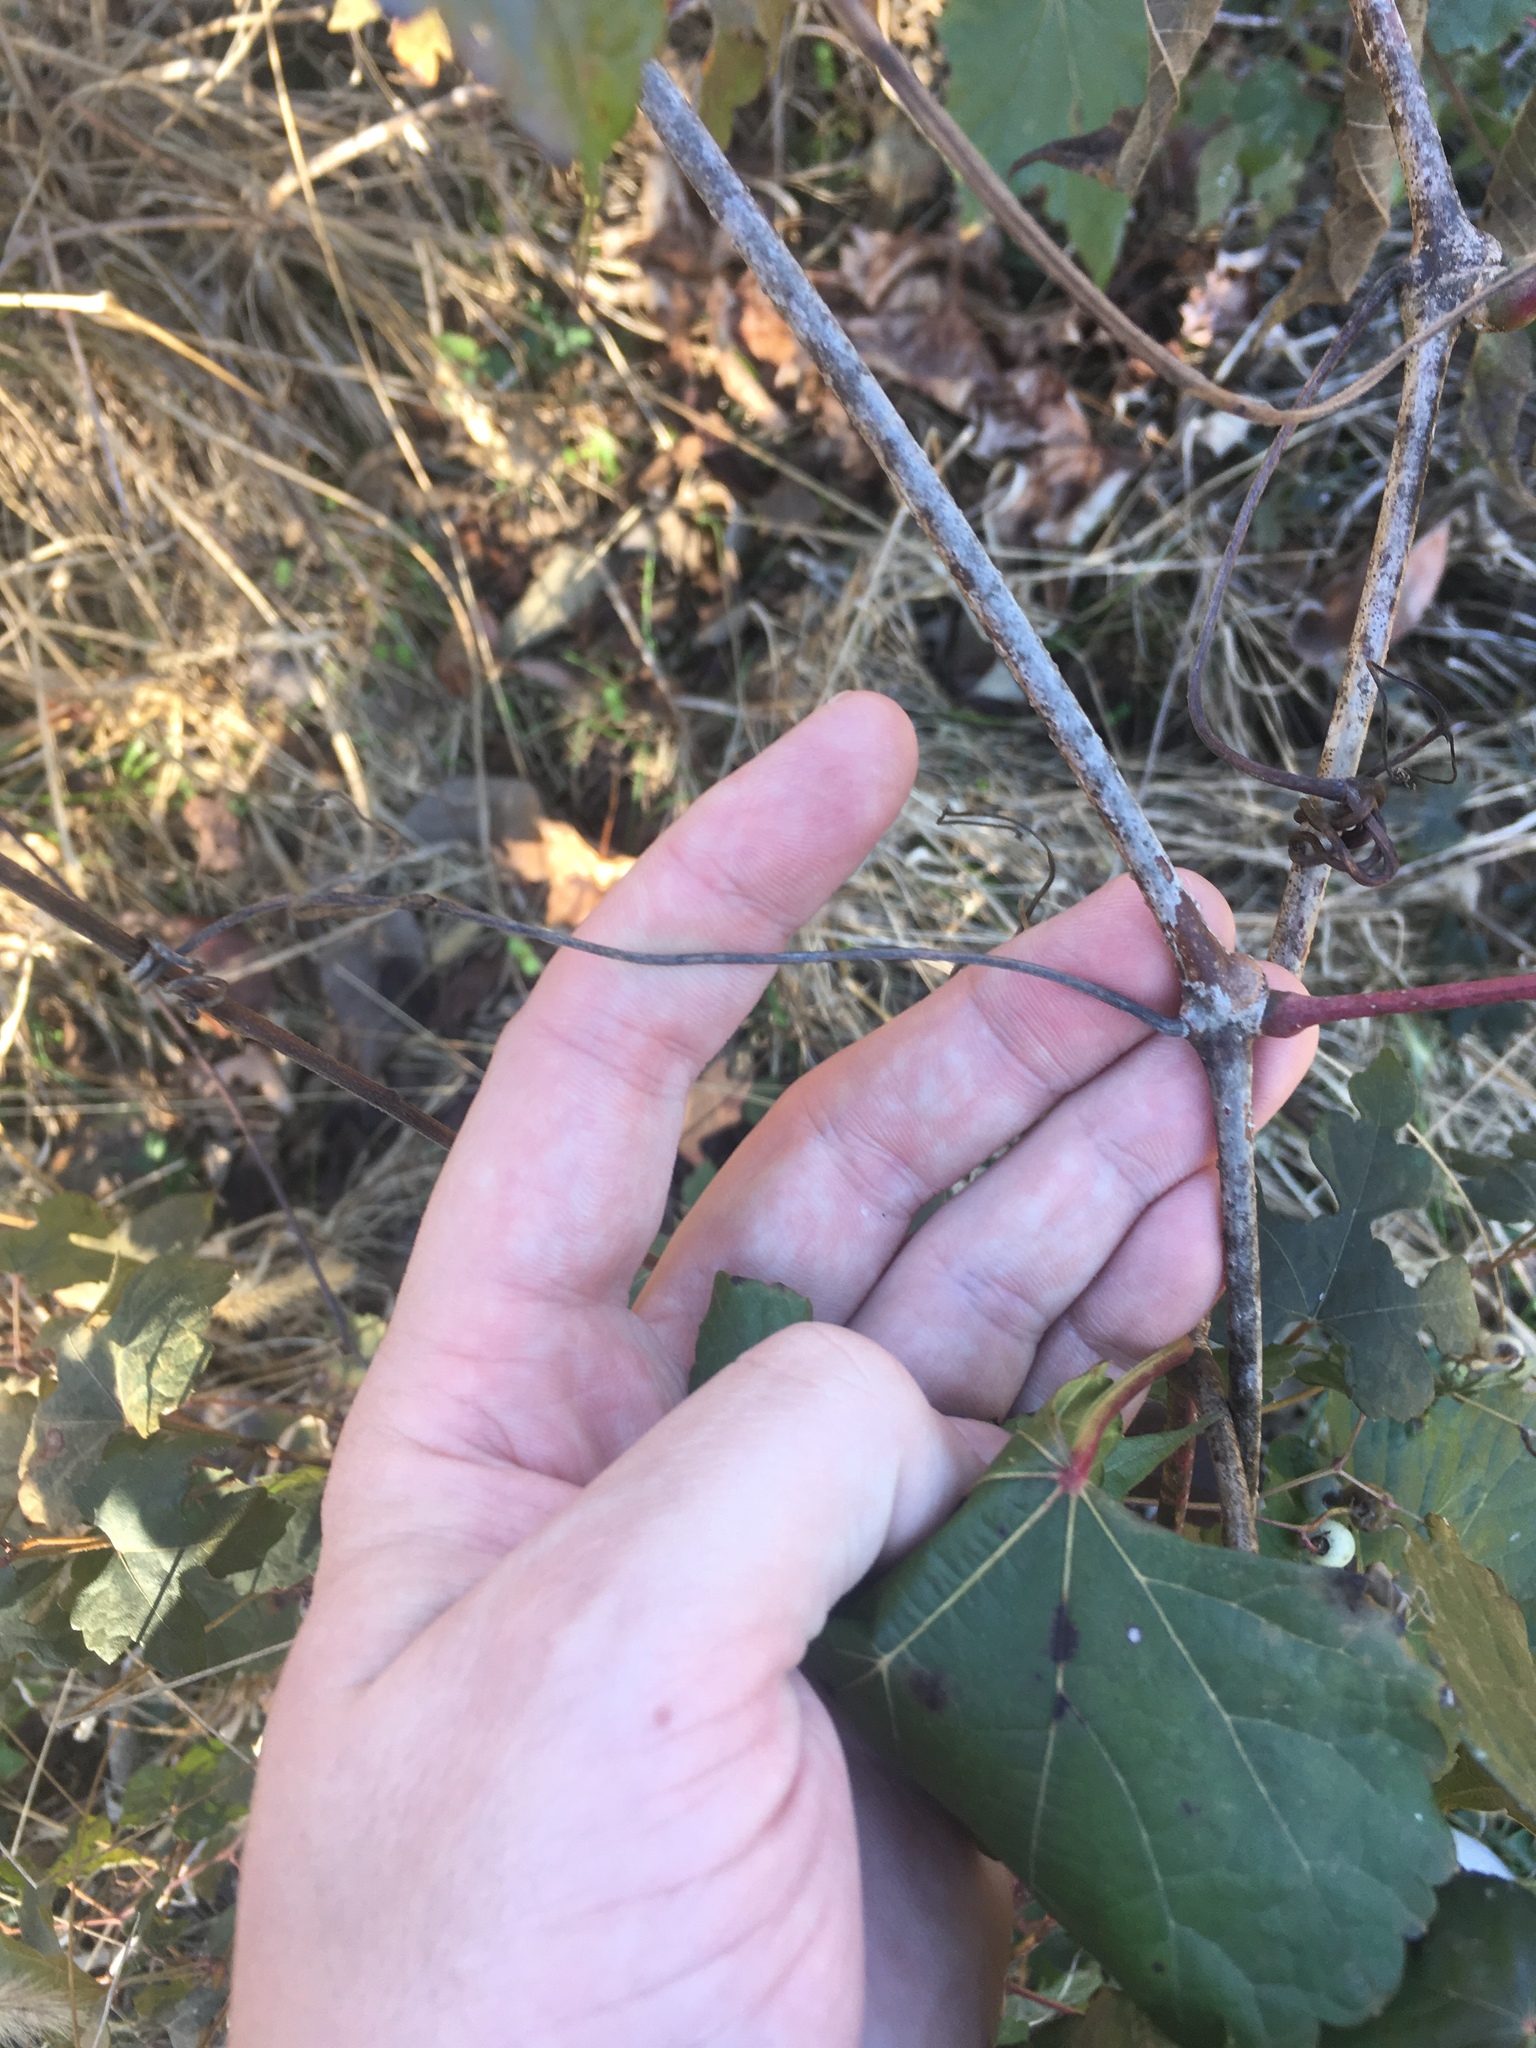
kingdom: Plantae
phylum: Tracheophyta
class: Magnoliopsida
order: Vitales
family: Vitaceae
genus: Ampelopsis
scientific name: Ampelopsis glandulosa
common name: Amur peppervine
